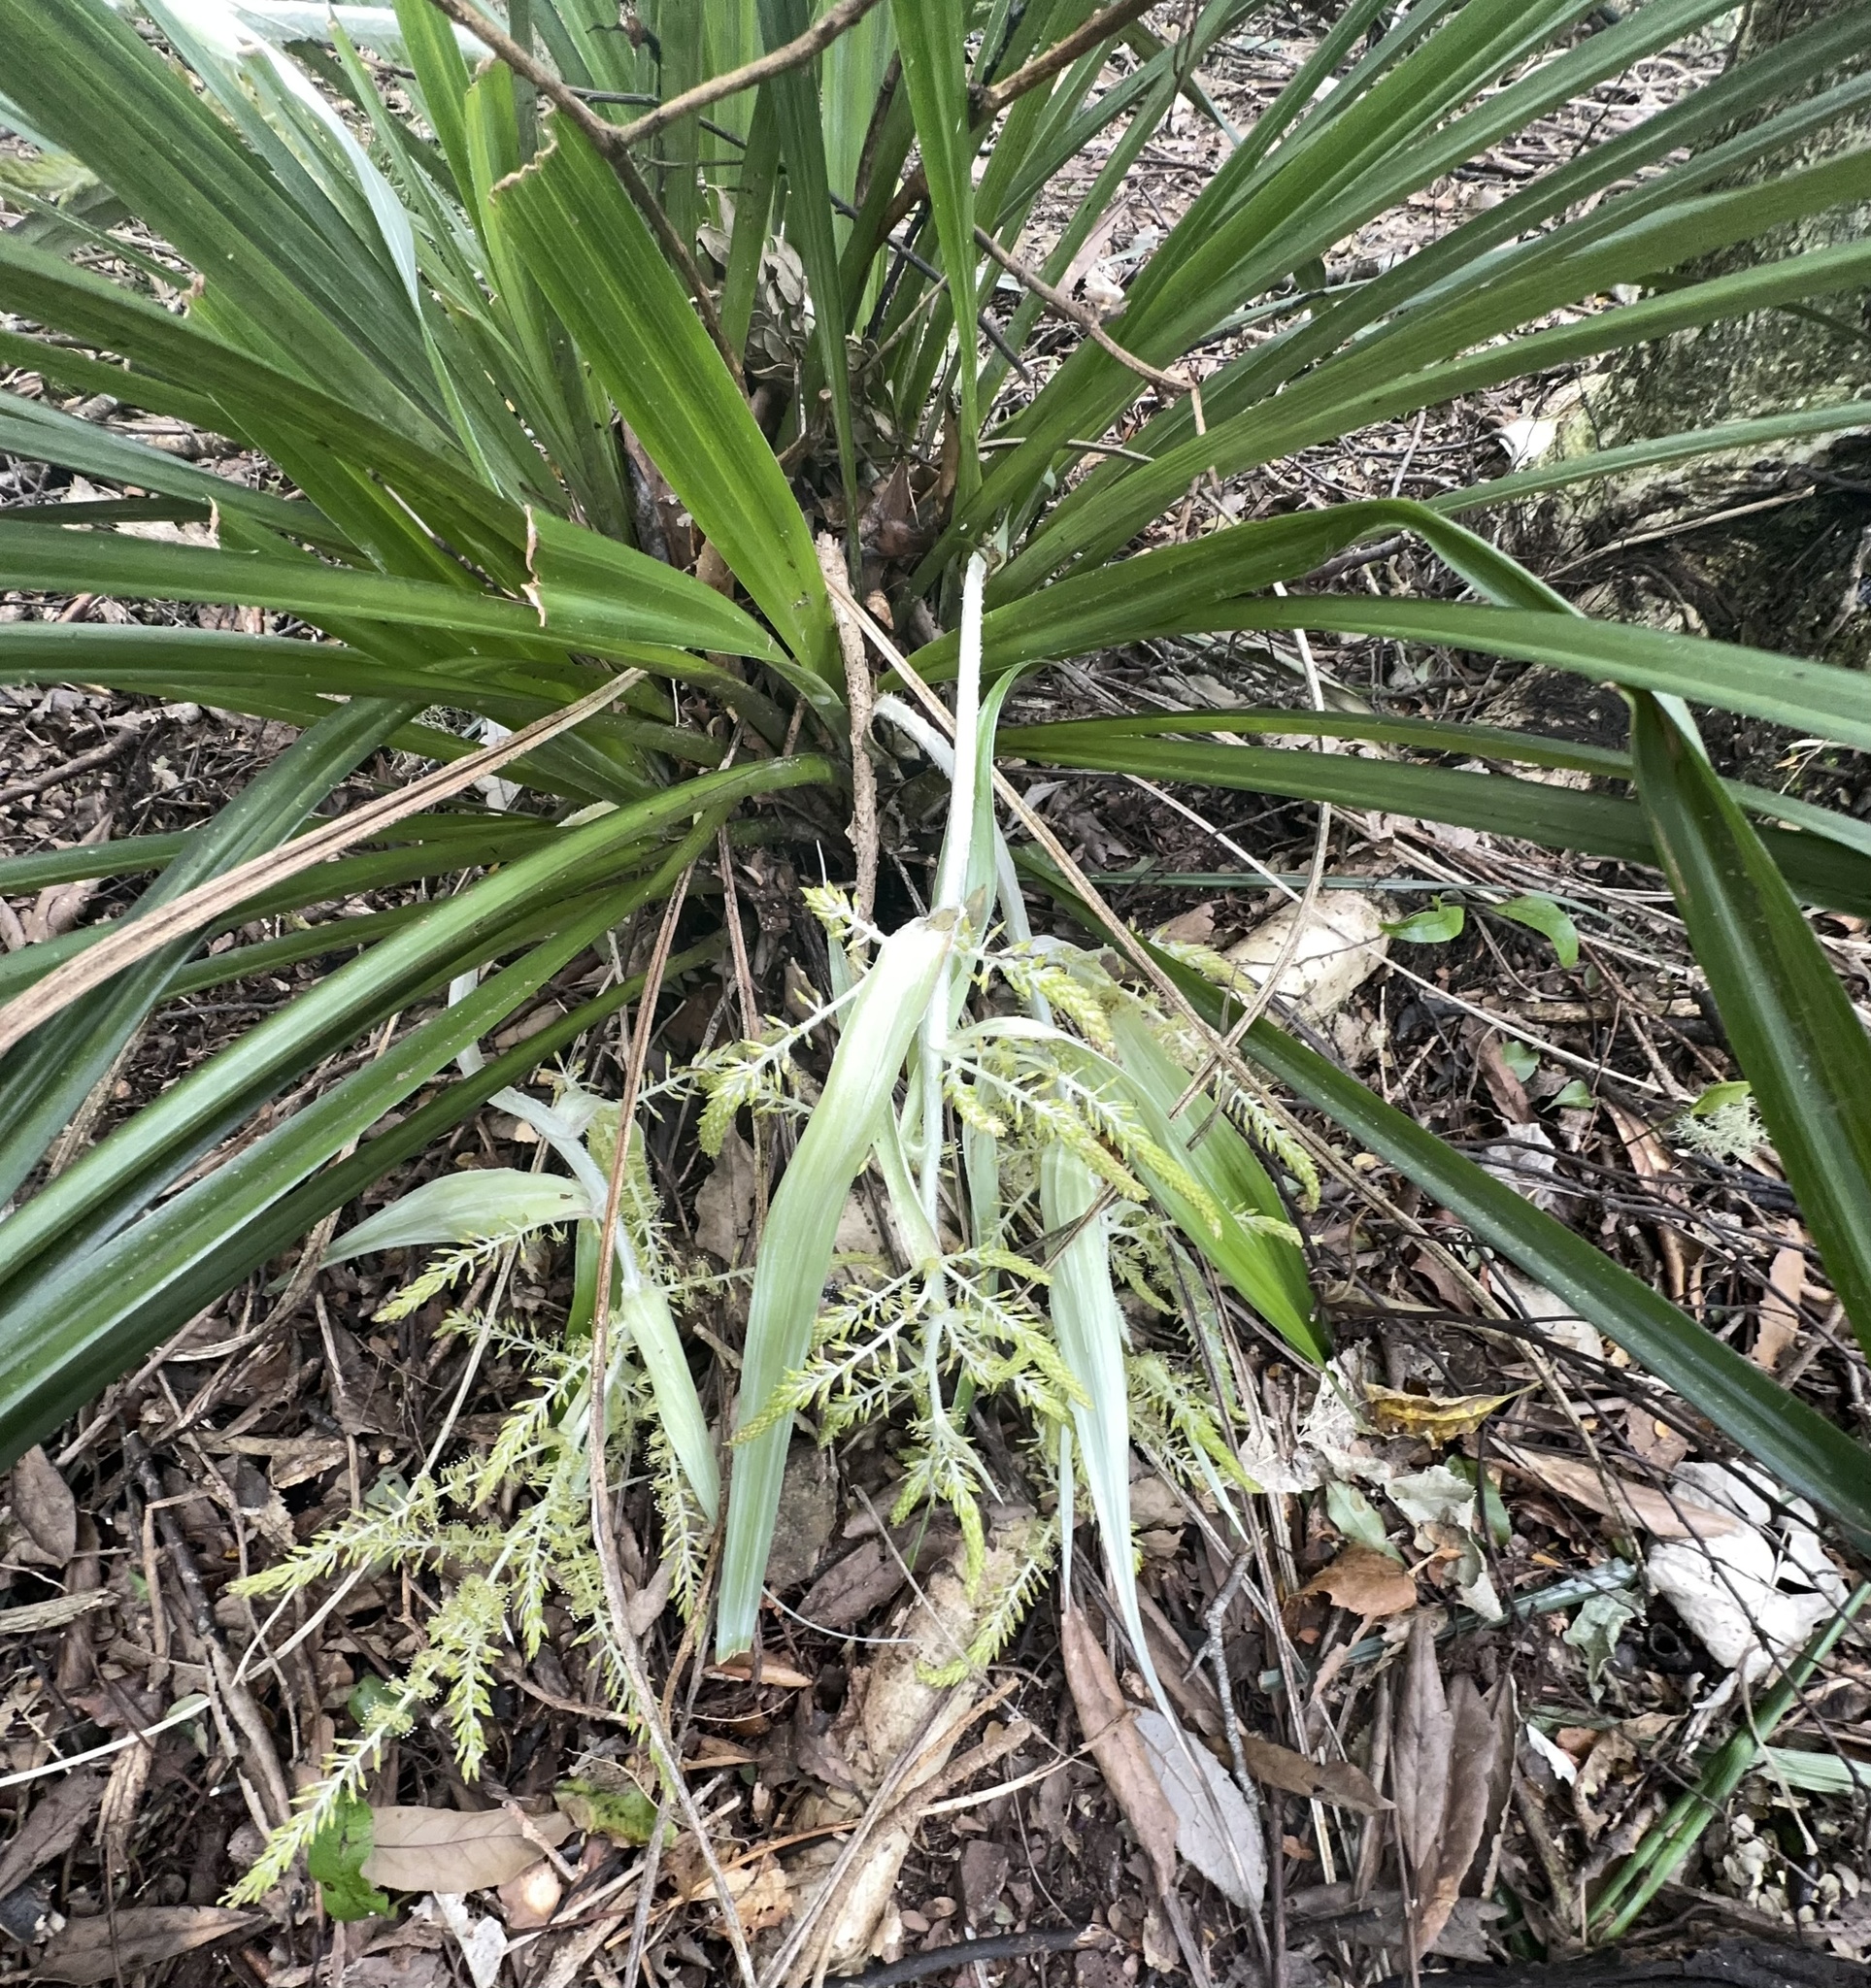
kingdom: Plantae
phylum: Tracheophyta
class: Liliopsida
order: Asparagales
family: Asteliaceae
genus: Astelia
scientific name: Astelia solandri
